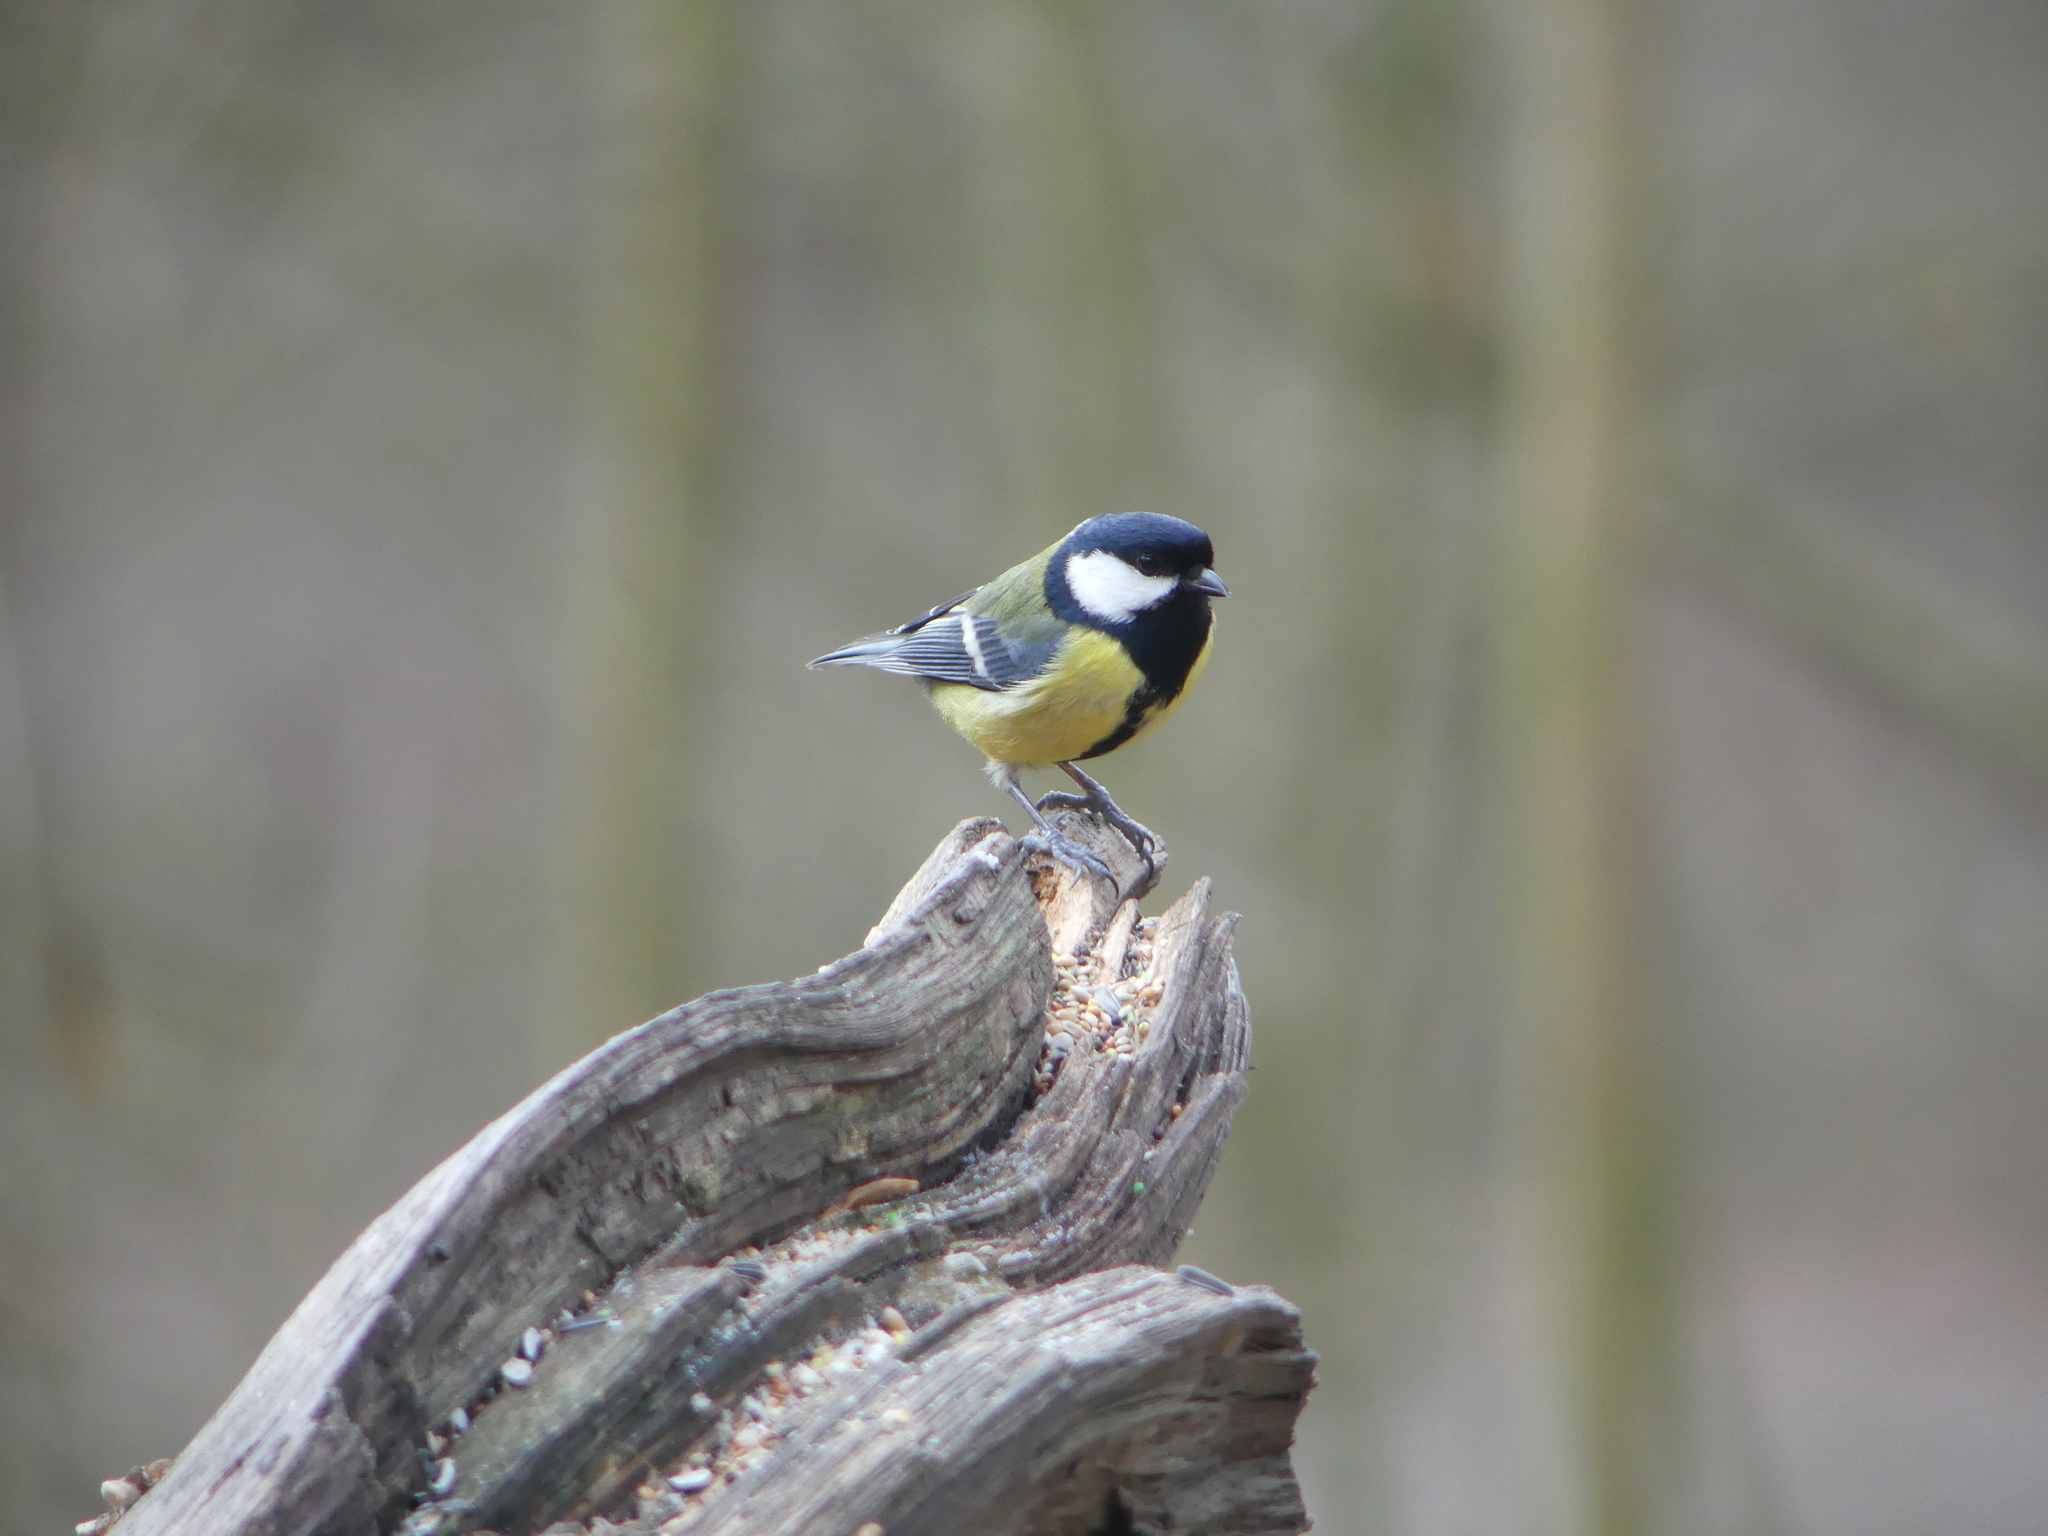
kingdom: Animalia
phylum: Chordata
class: Aves
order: Passeriformes
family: Paridae
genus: Parus
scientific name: Parus major
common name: Great tit
